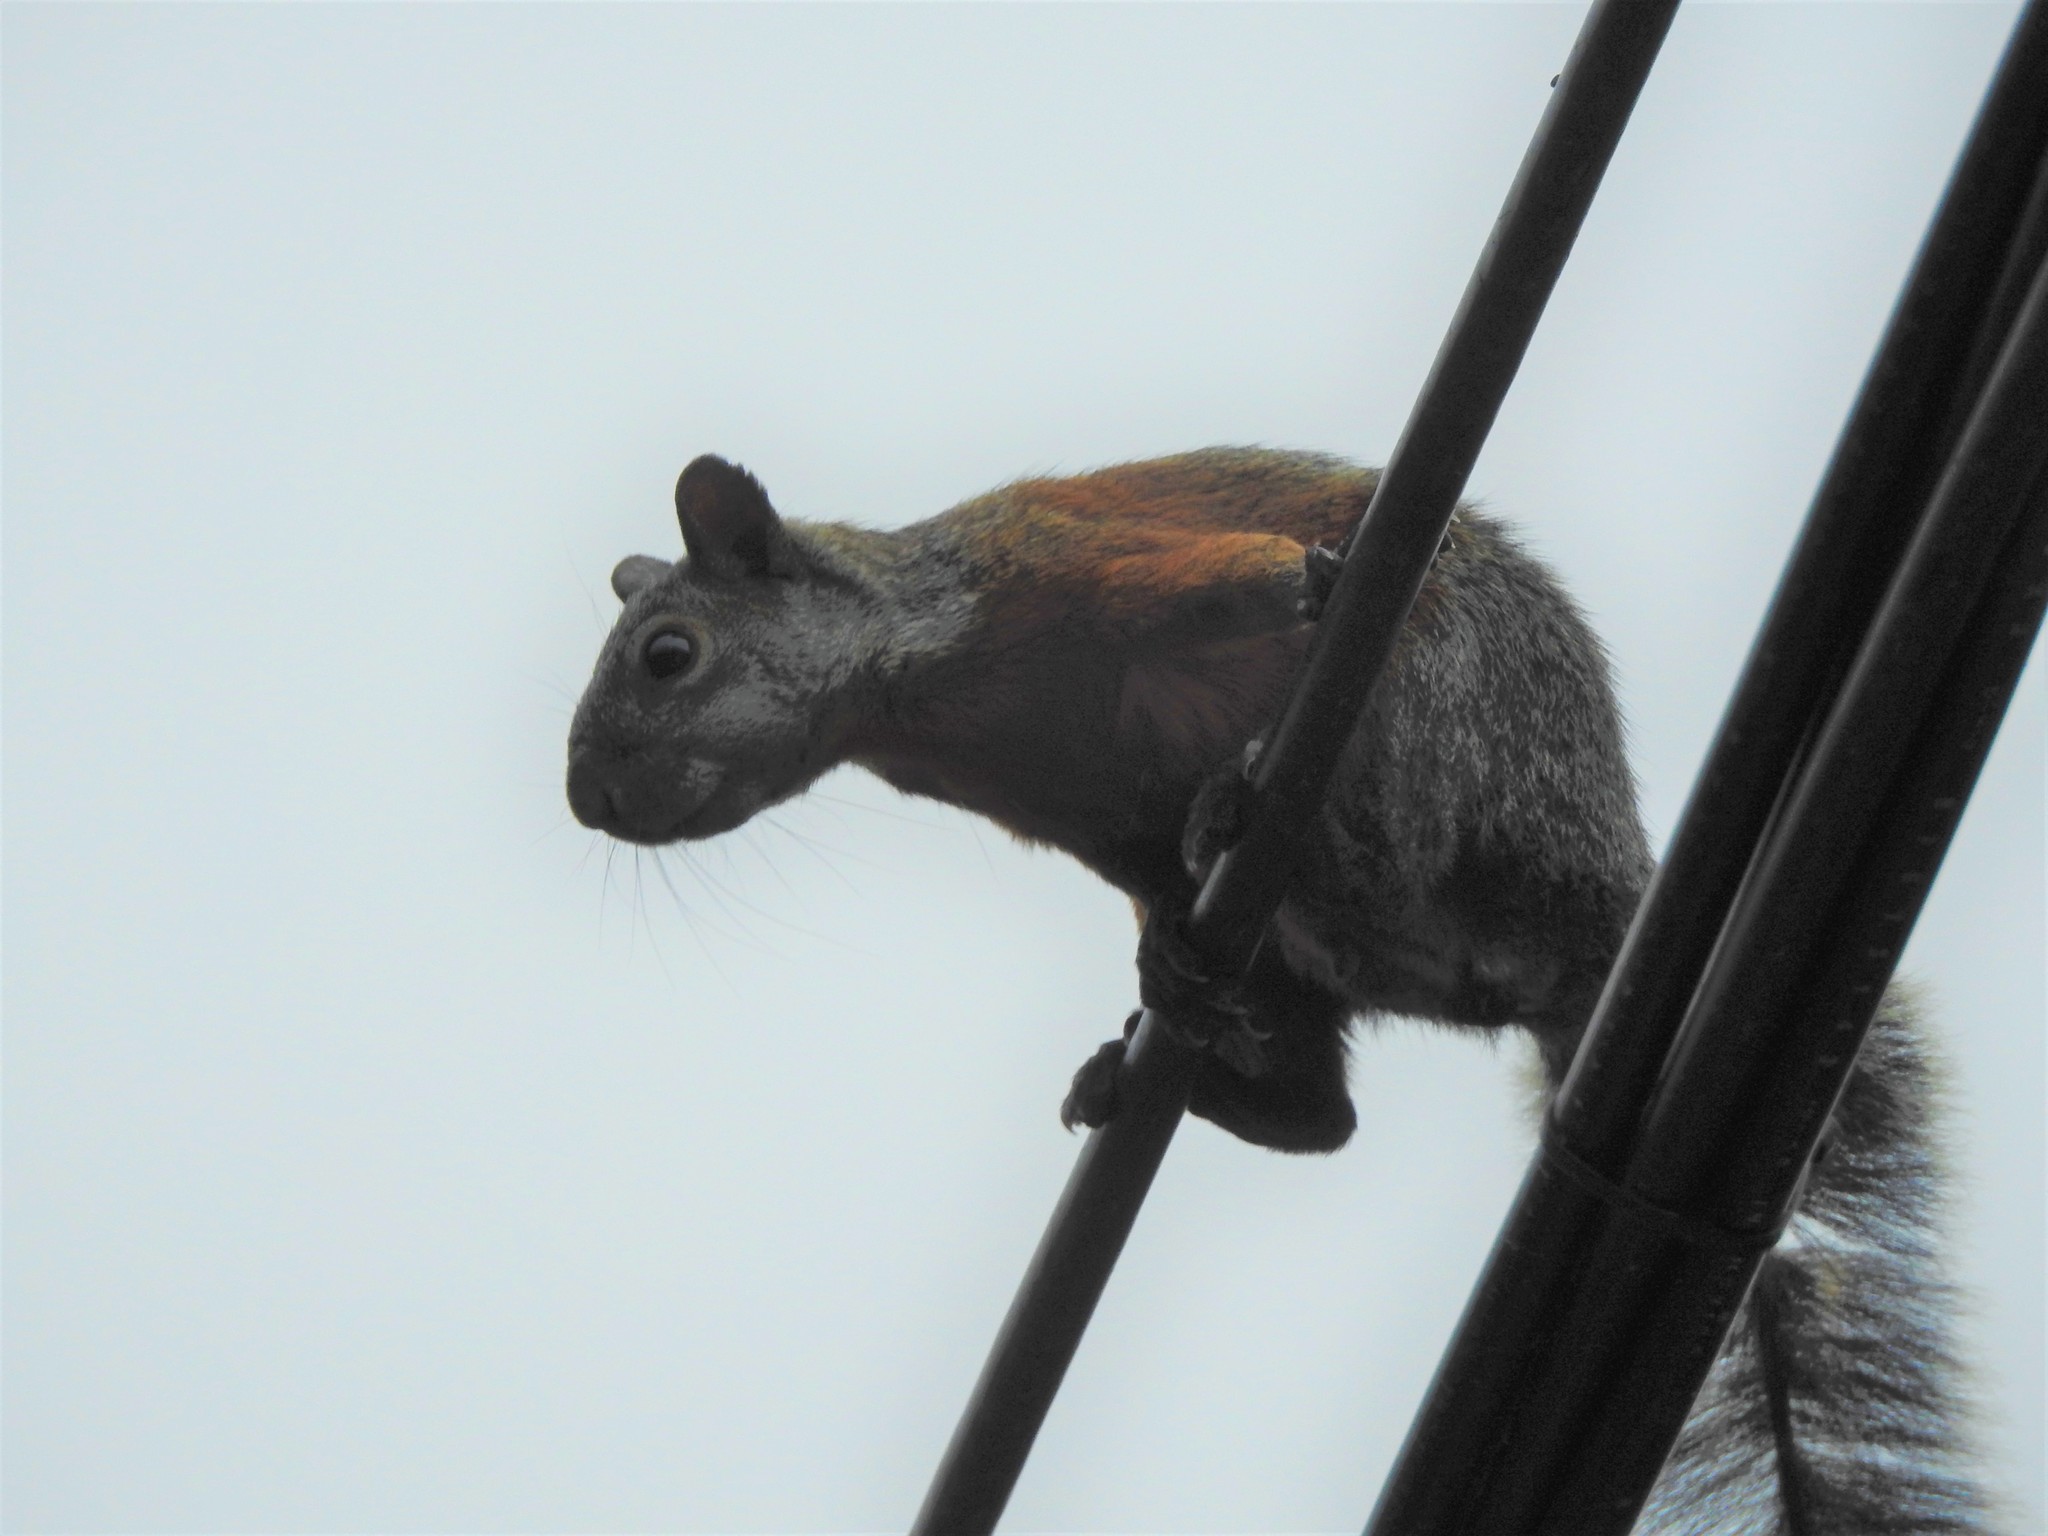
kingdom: Animalia
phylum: Chordata
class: Mammalia
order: Rodentia
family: Sciuridae
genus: Sciurus
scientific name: Sciurus aureogaster
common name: Red-bellied squirrel
